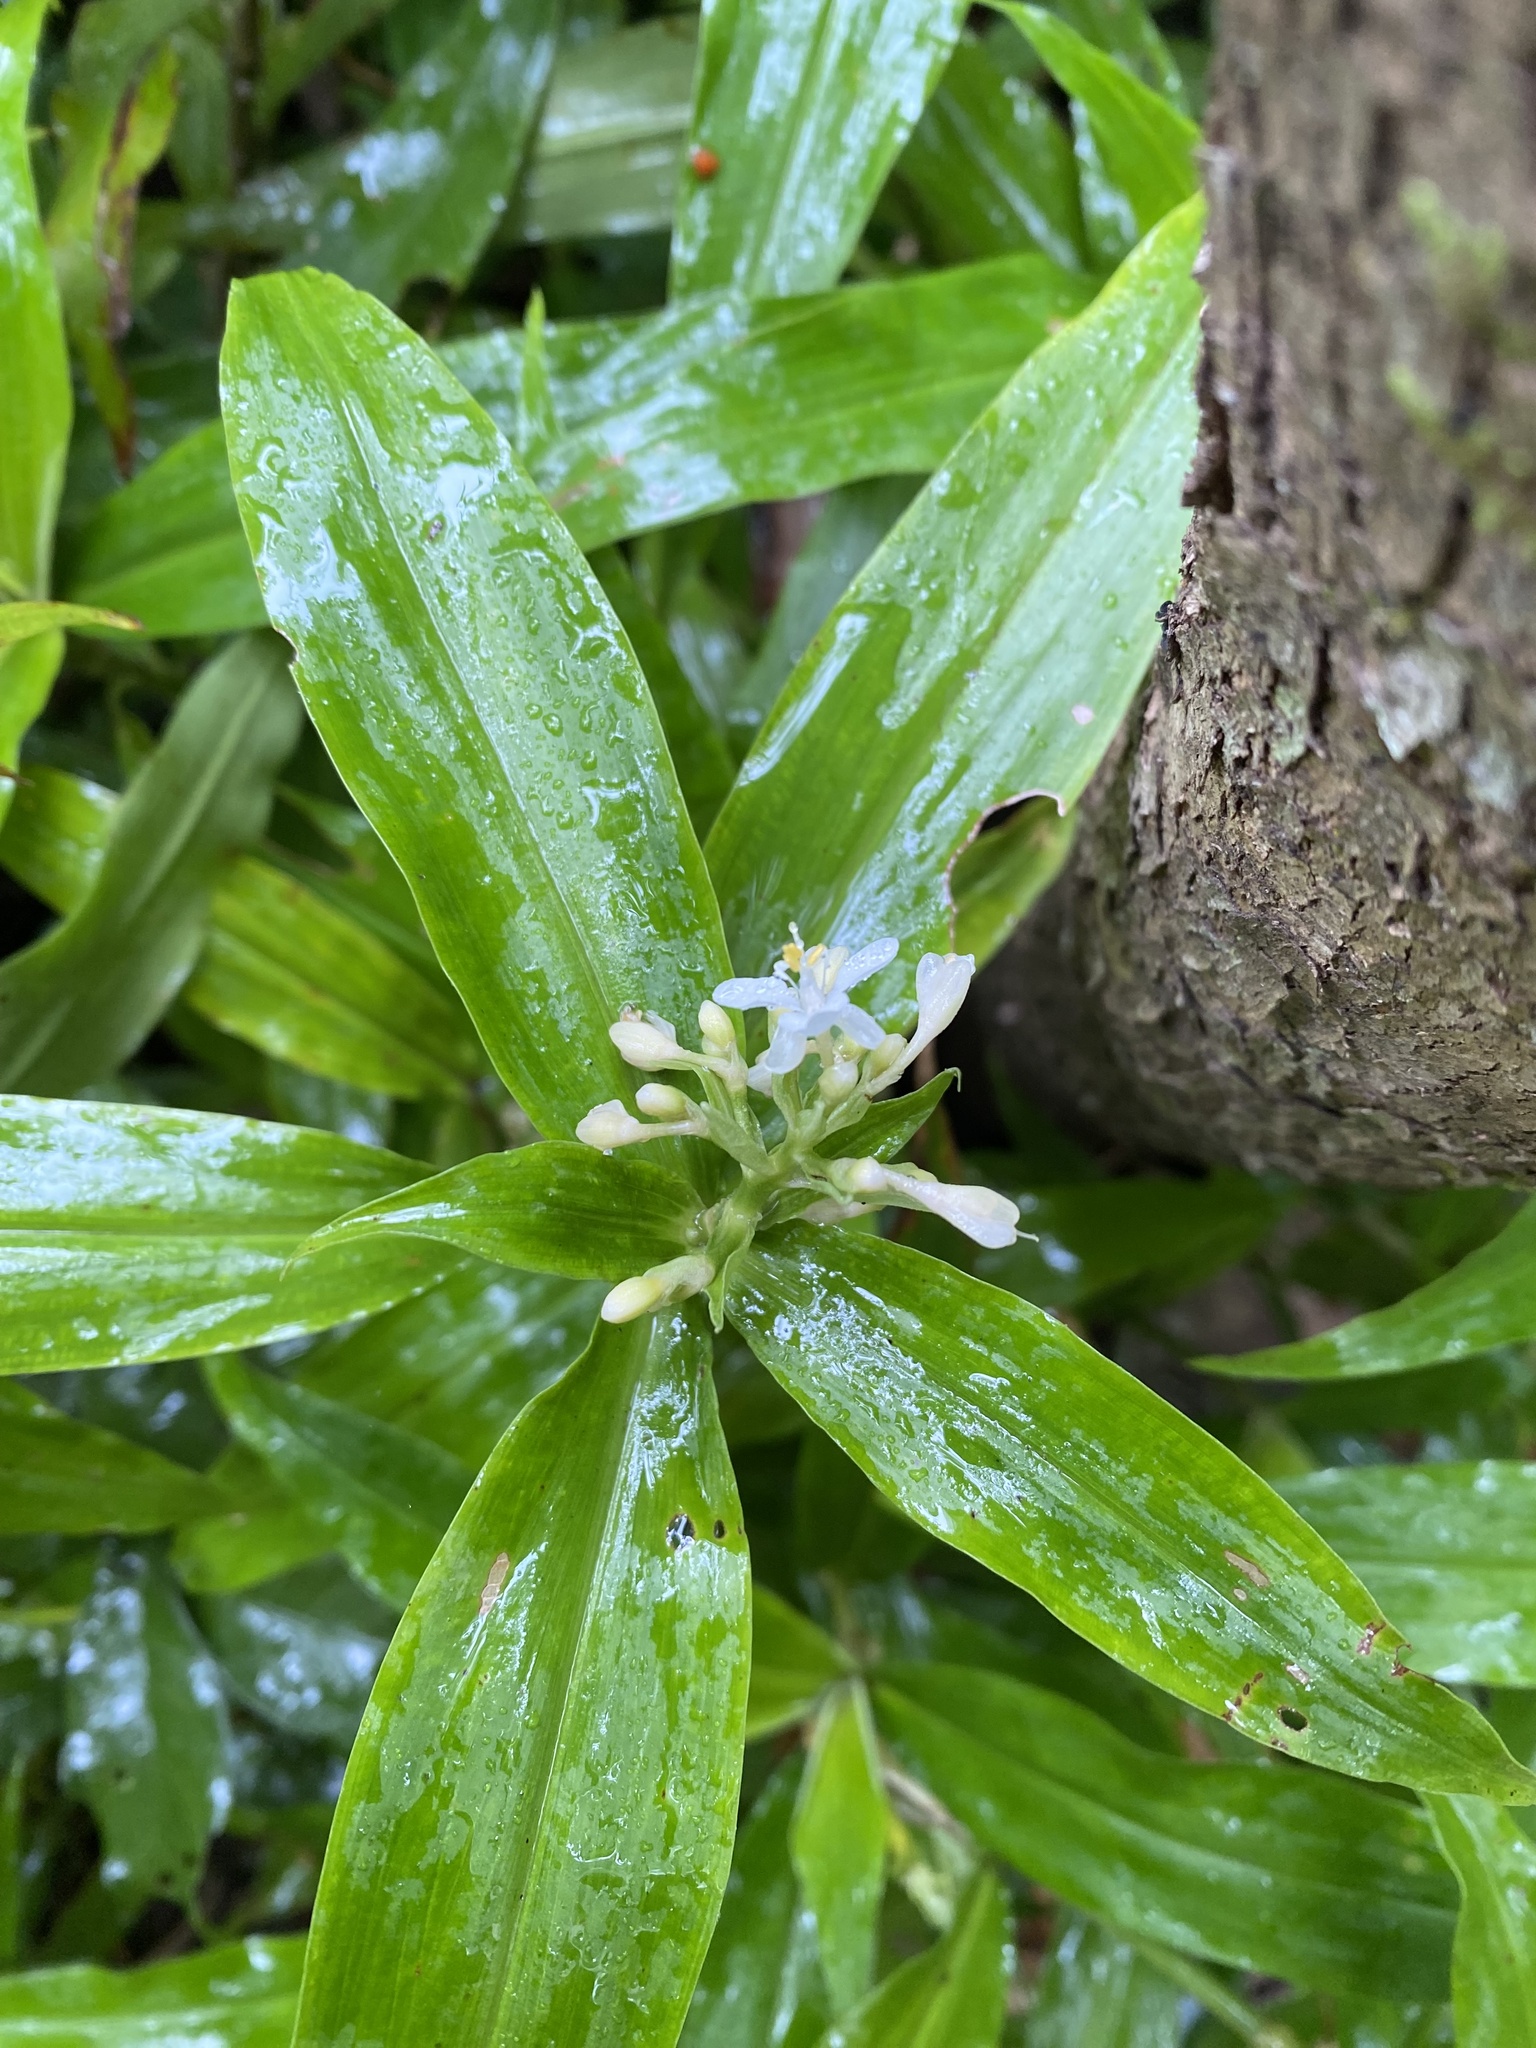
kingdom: Plantae
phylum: Tracheophyta
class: Liliopsida
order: Commelinales
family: Commelinaceae
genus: Pollia
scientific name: Pollia crispata
